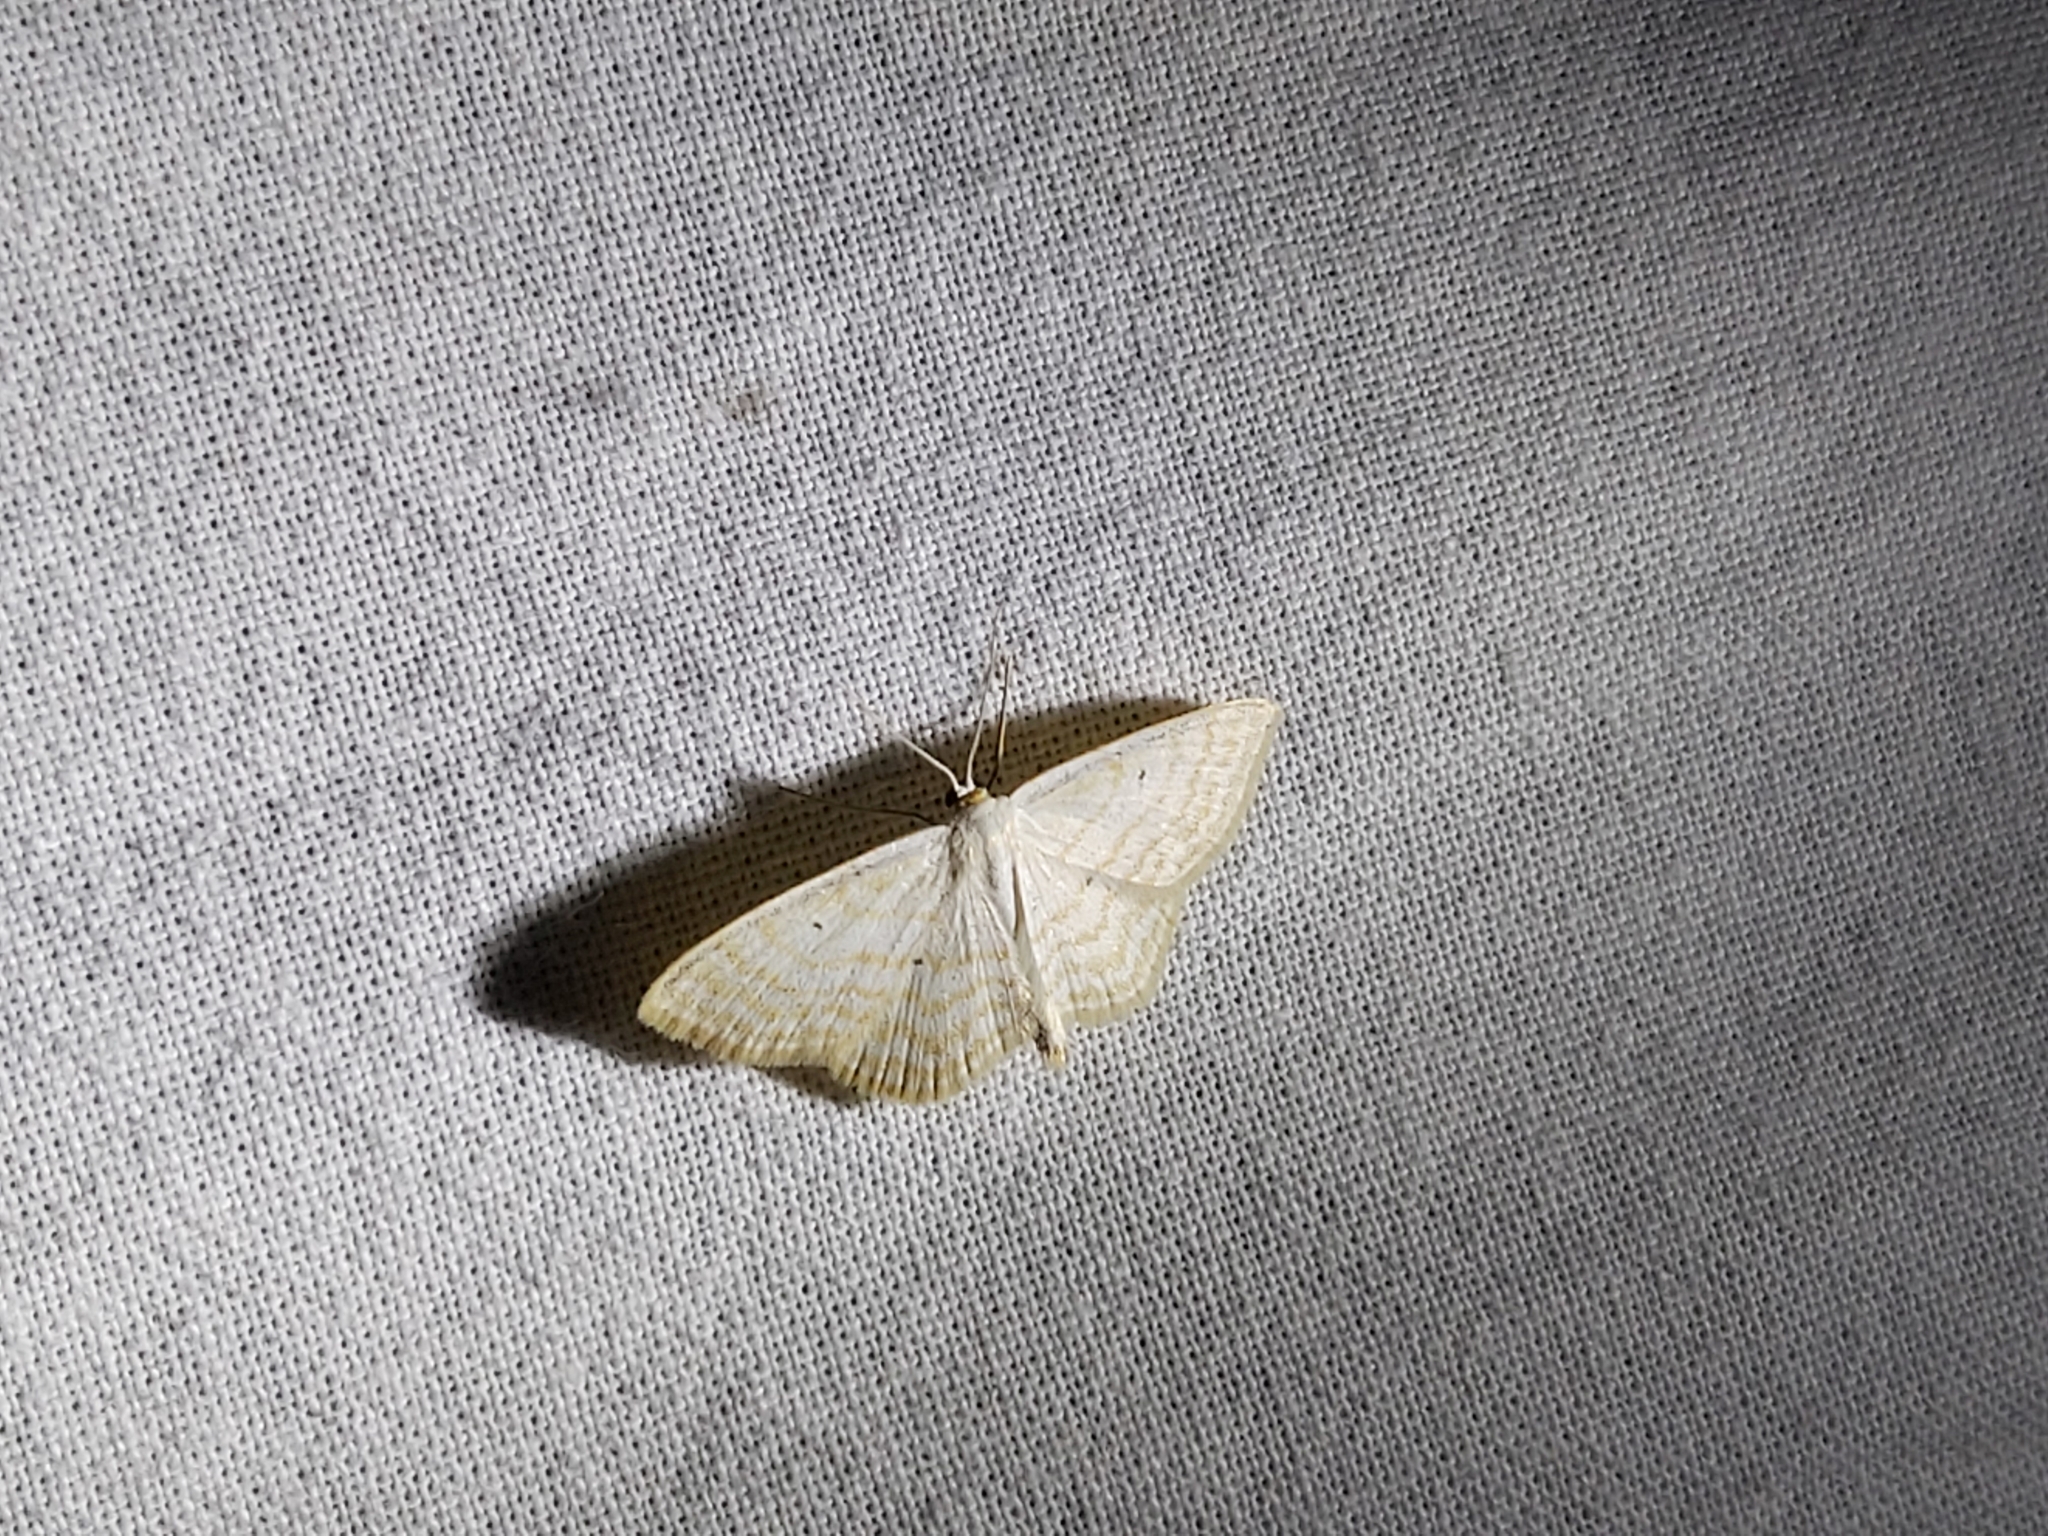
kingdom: Animalia
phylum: Arthropoda
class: Insecta
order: Lepidoptera
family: Geometridae
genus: Scopula
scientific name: Scopula immutata
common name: Lesser cream wave
